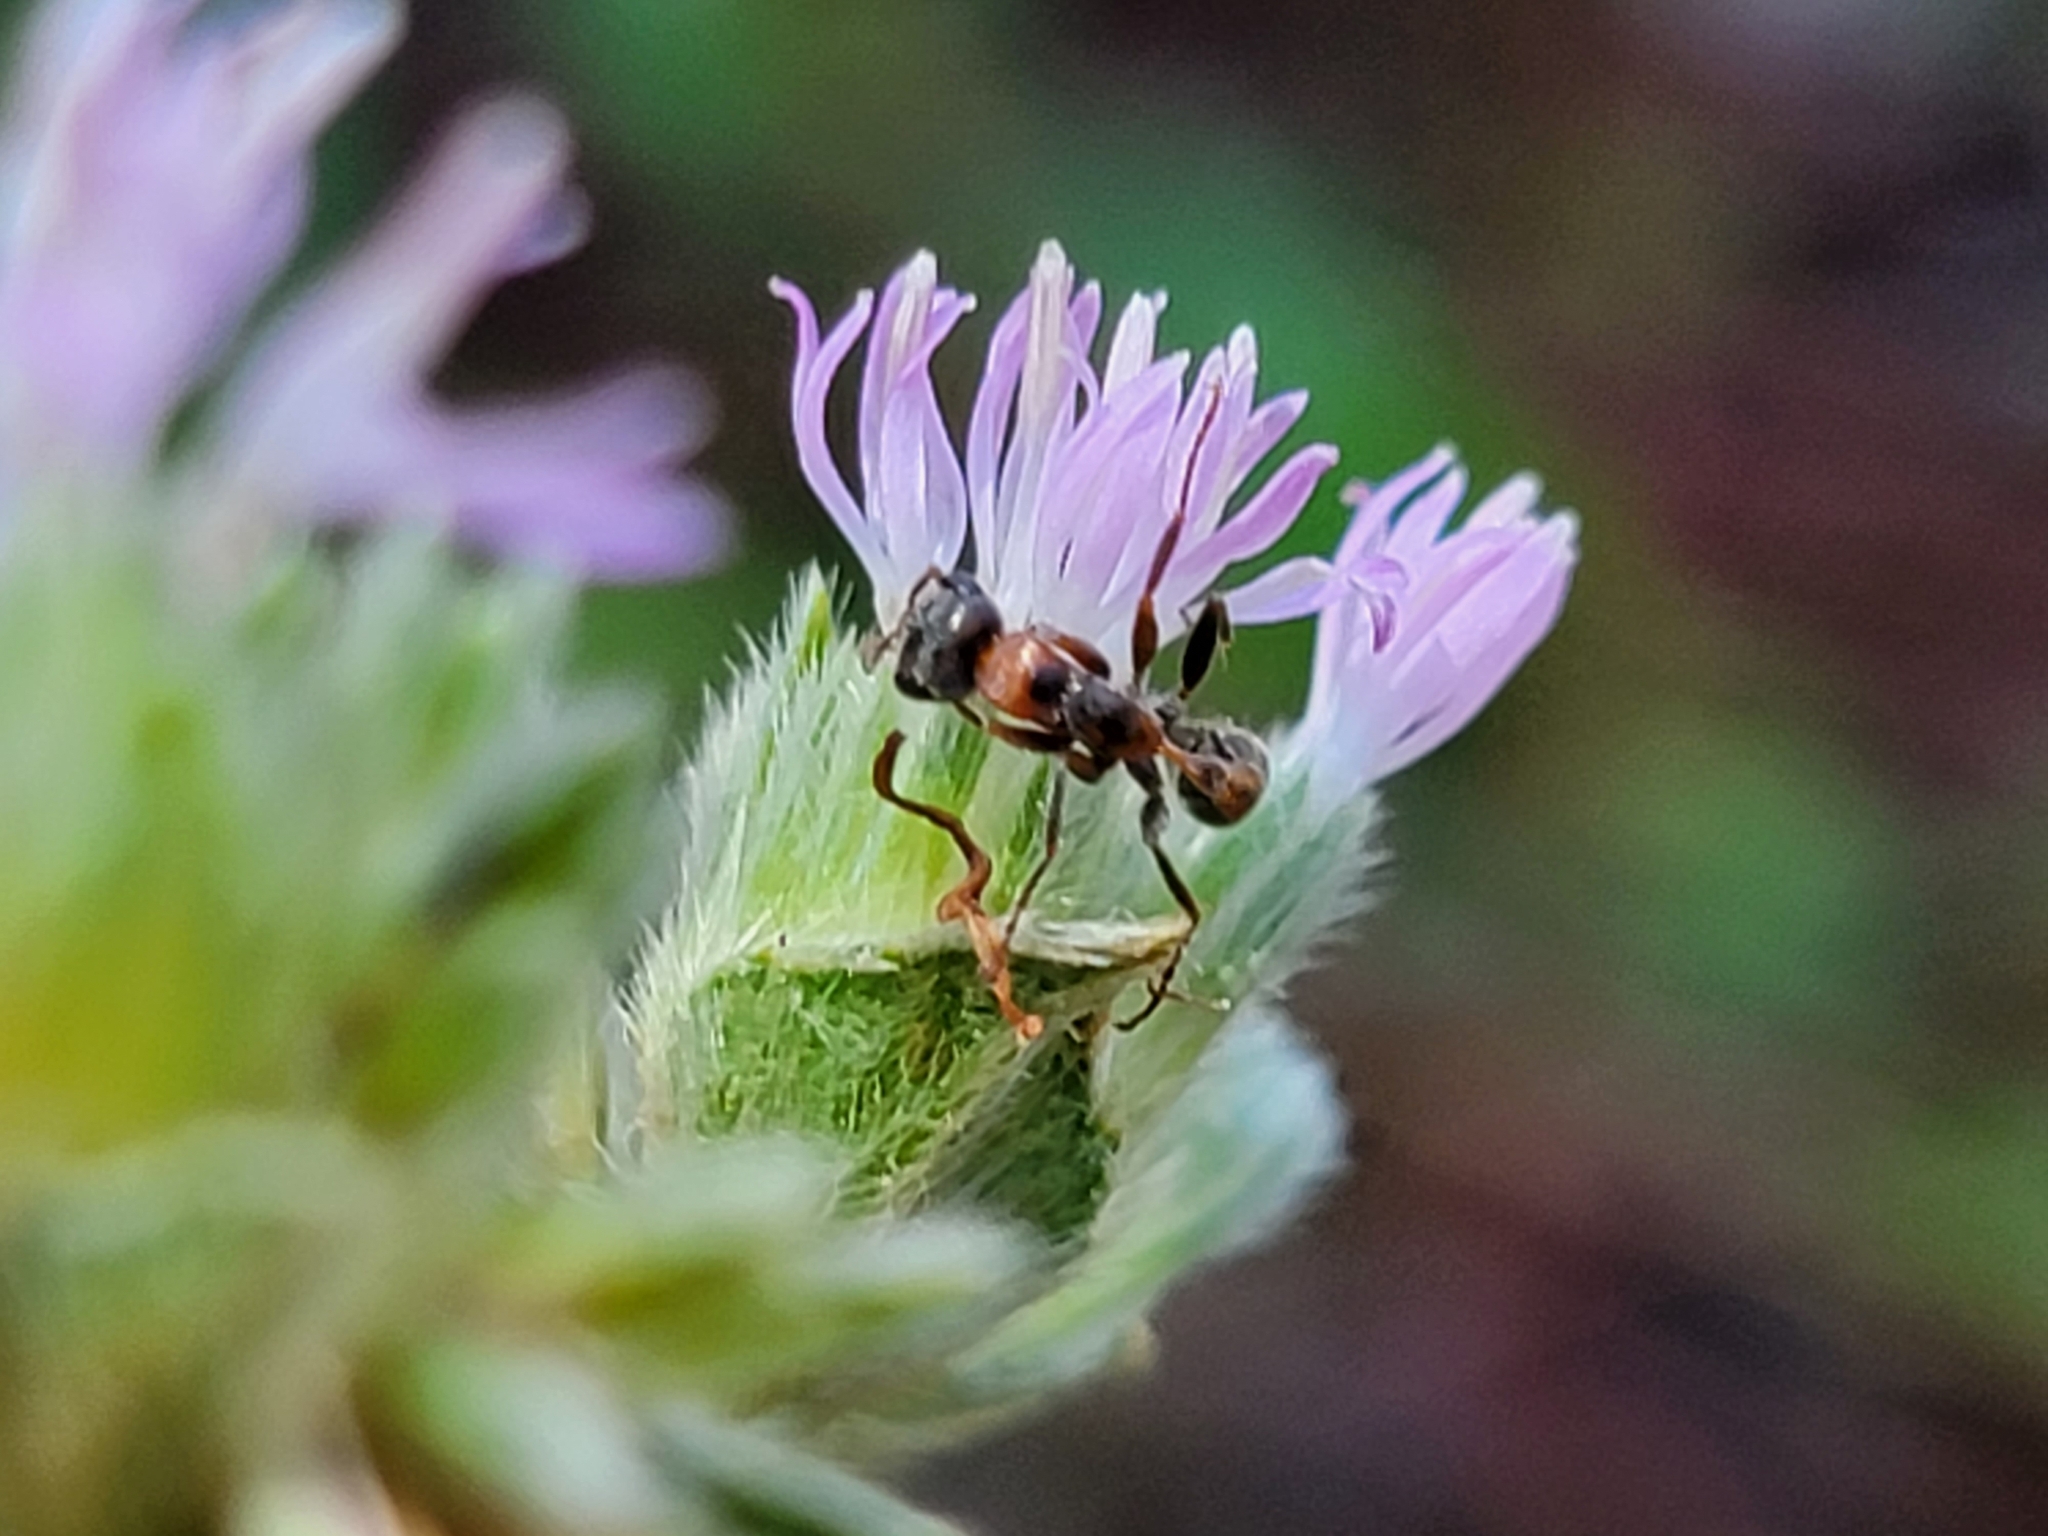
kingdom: Animalia
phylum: Arthropoda
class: Insecta
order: Hymenoptera
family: Formicidae
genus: Pseudomyrmex
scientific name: Pseudomyrmex gracilis
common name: Graceful twig ant
